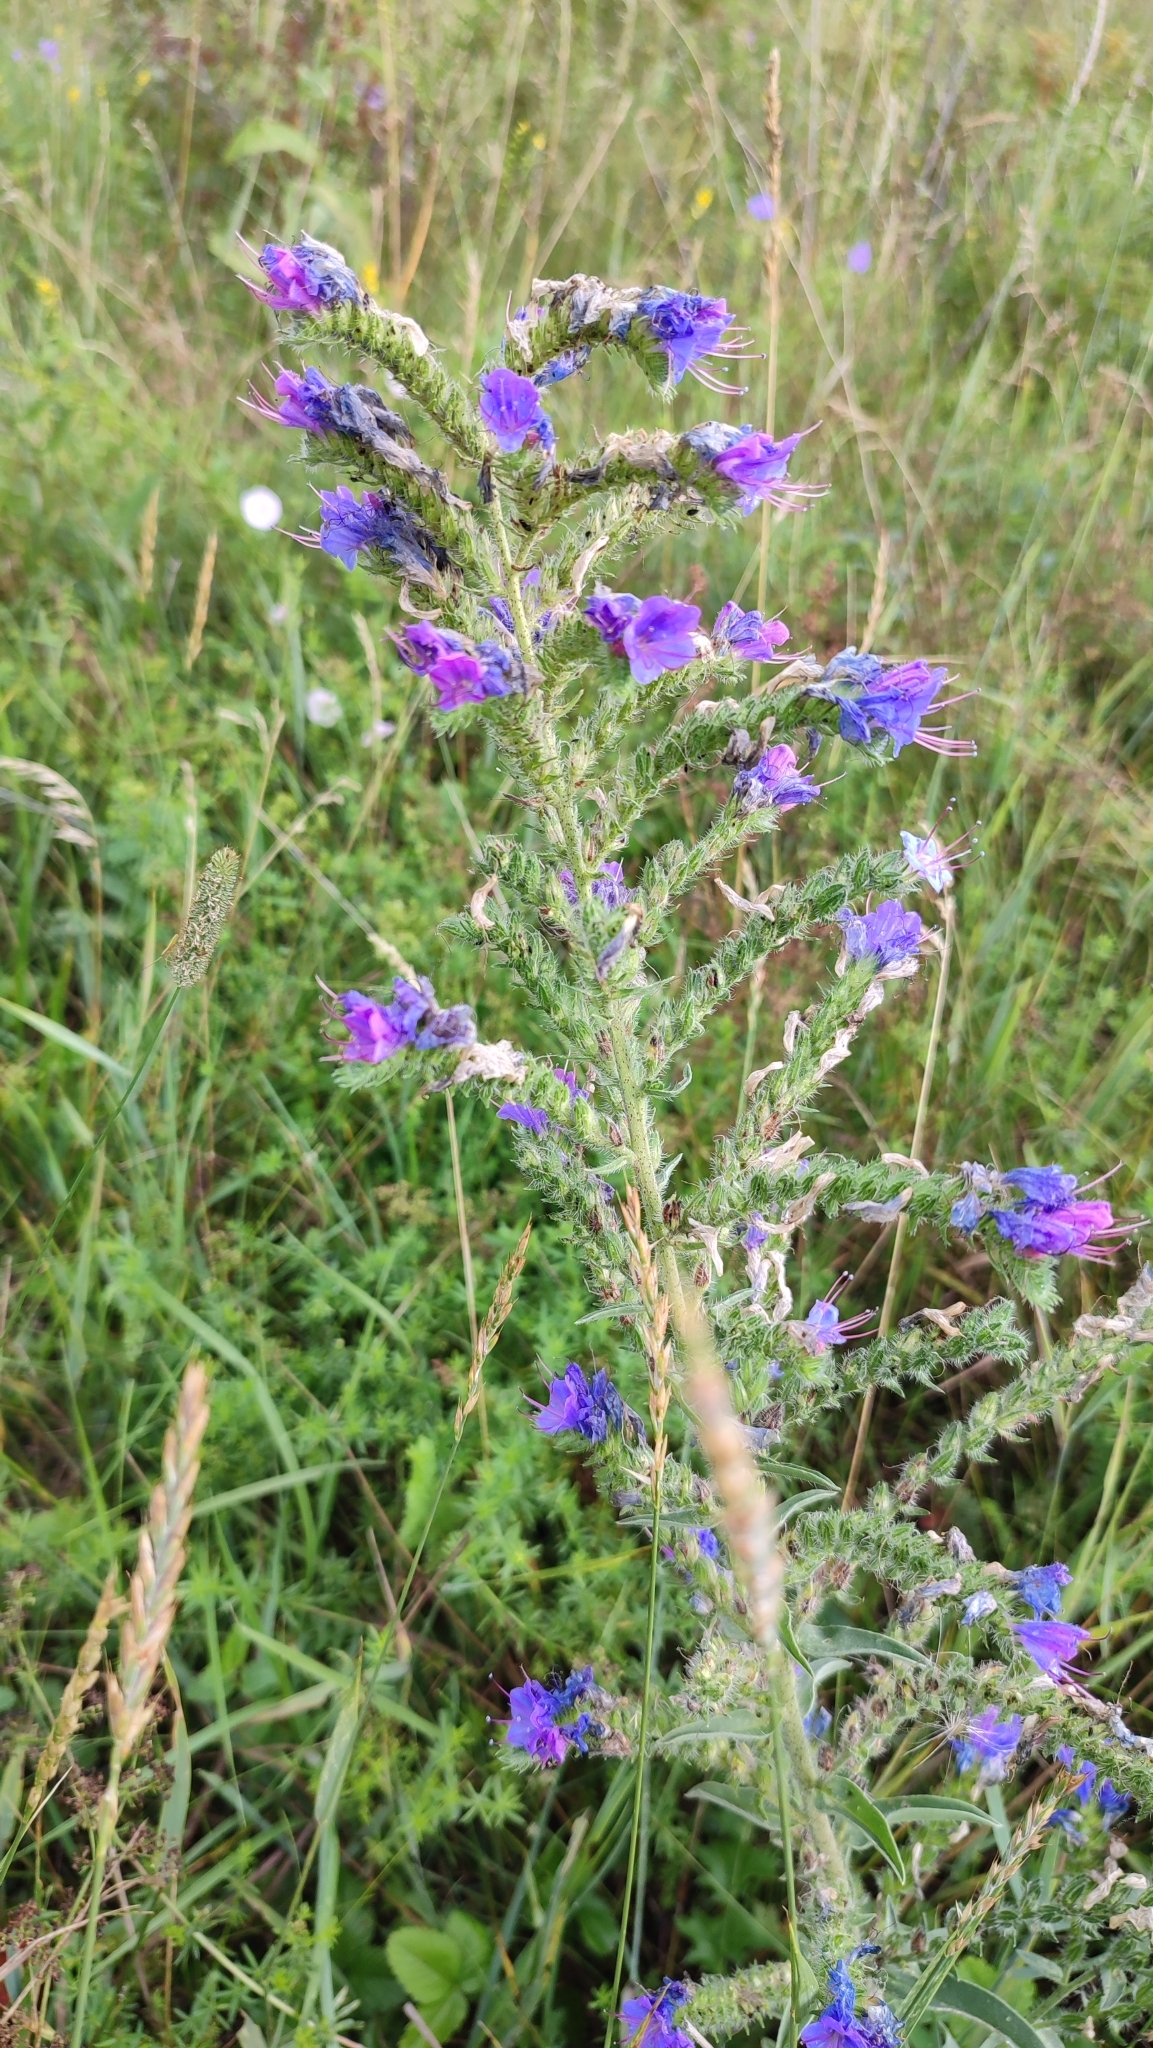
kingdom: Plantae
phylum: Tracheophyta
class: Magnoliopsida
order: Boraginales
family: Boraginaceae
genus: Echium
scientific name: Echium vulgare
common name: Common viper's bugloss
